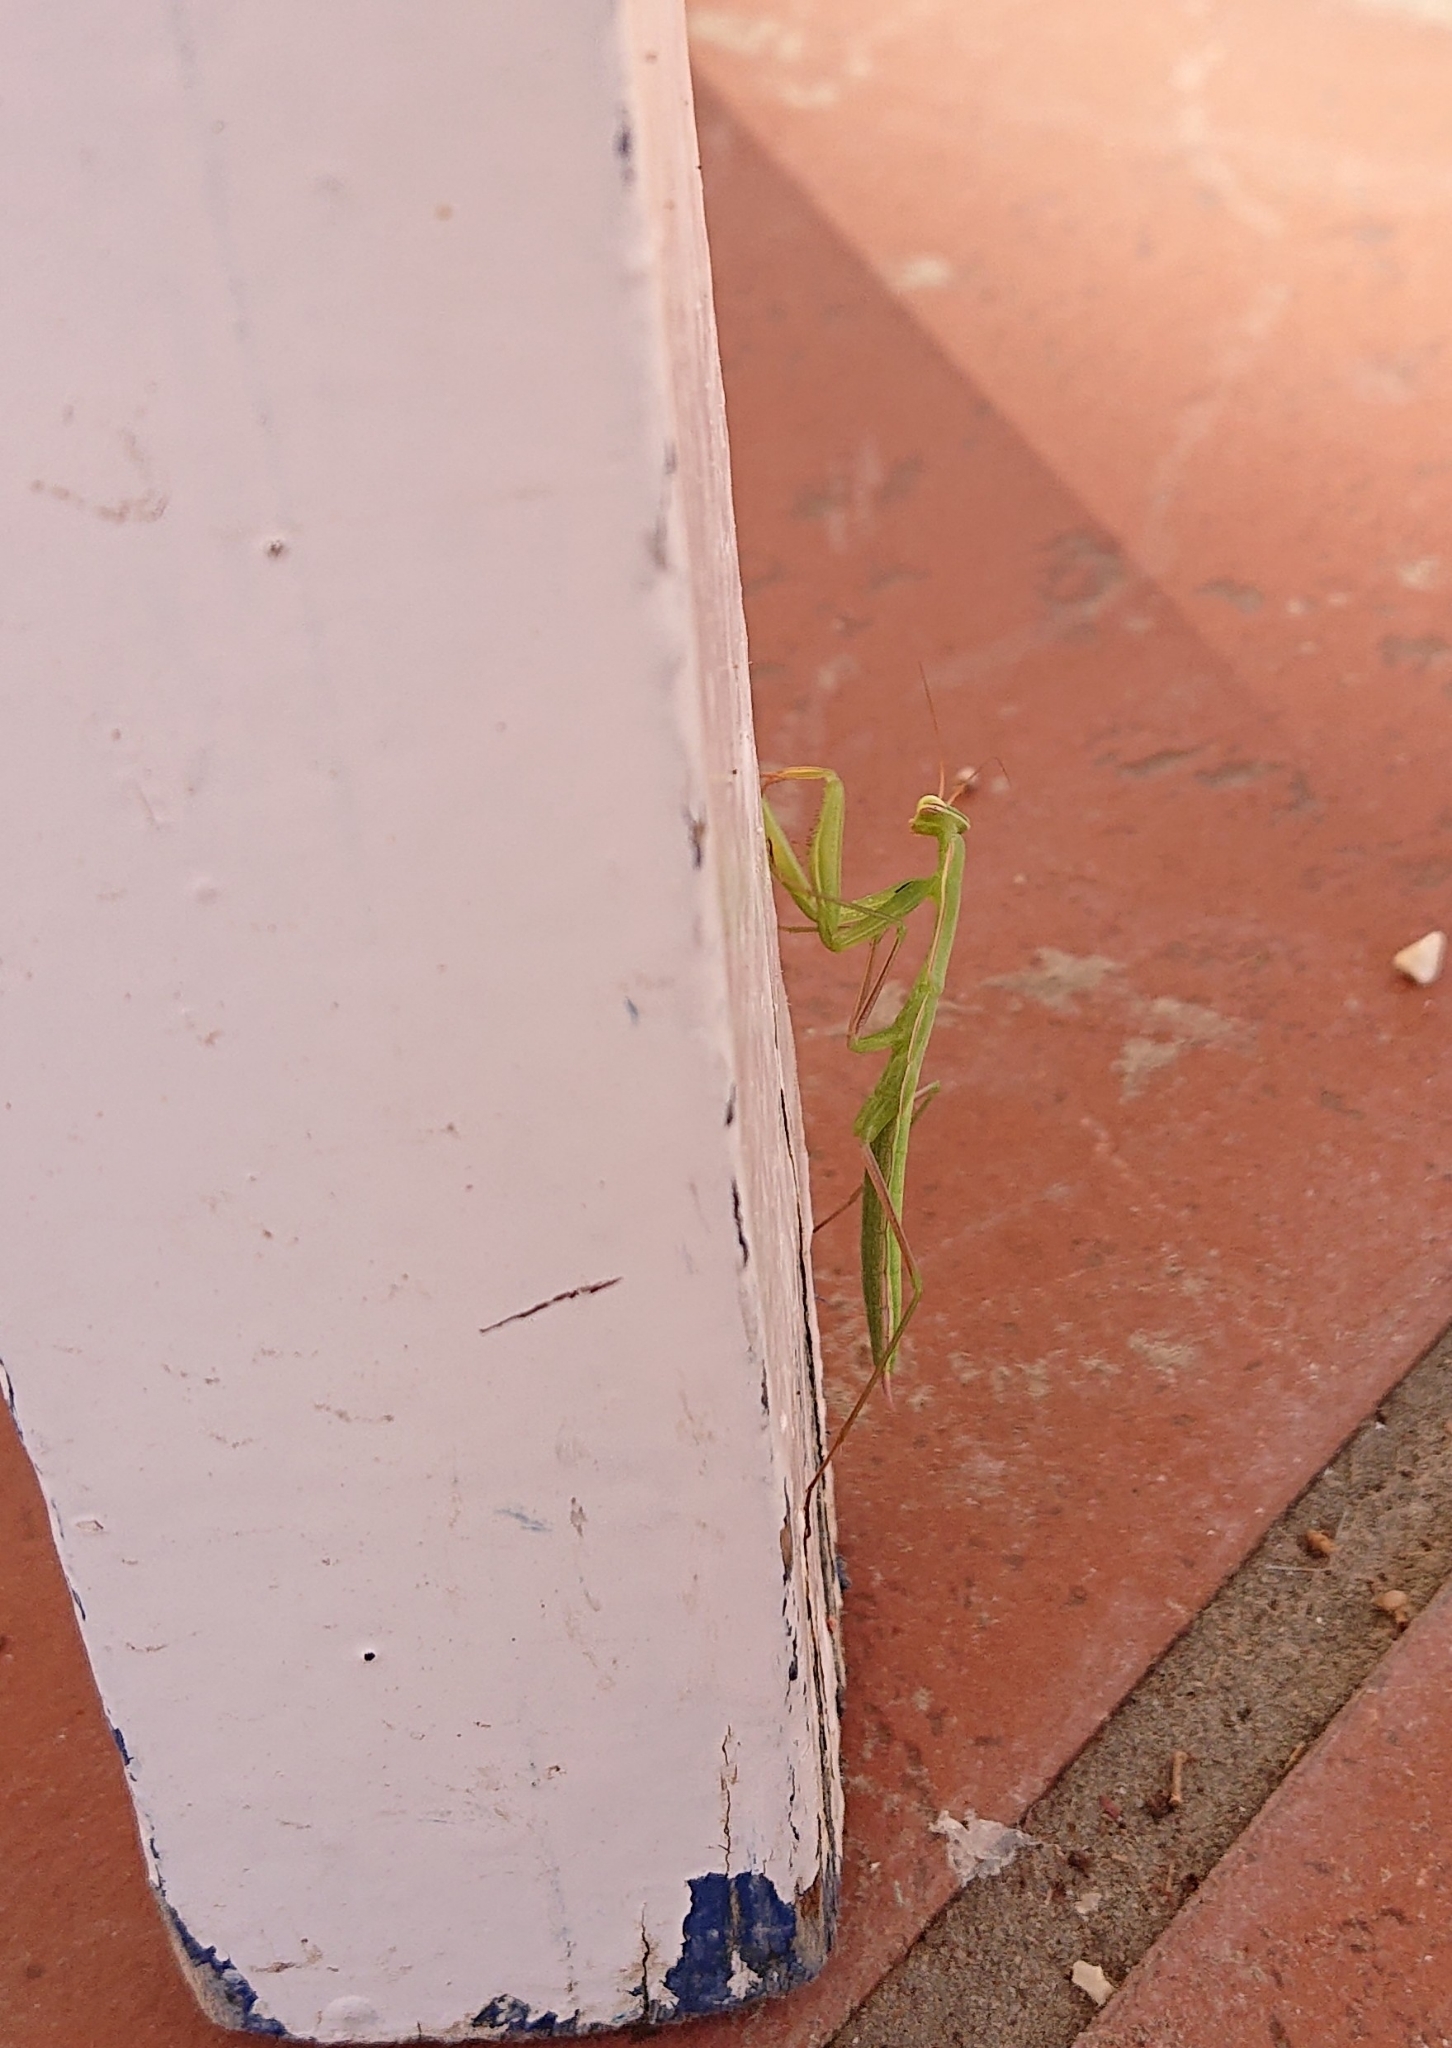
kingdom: Animalia
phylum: Arthropoda
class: Insecta
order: Mantodea
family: Mantidae
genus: Mantis
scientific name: Mantis religiosa
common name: Praying mantis
